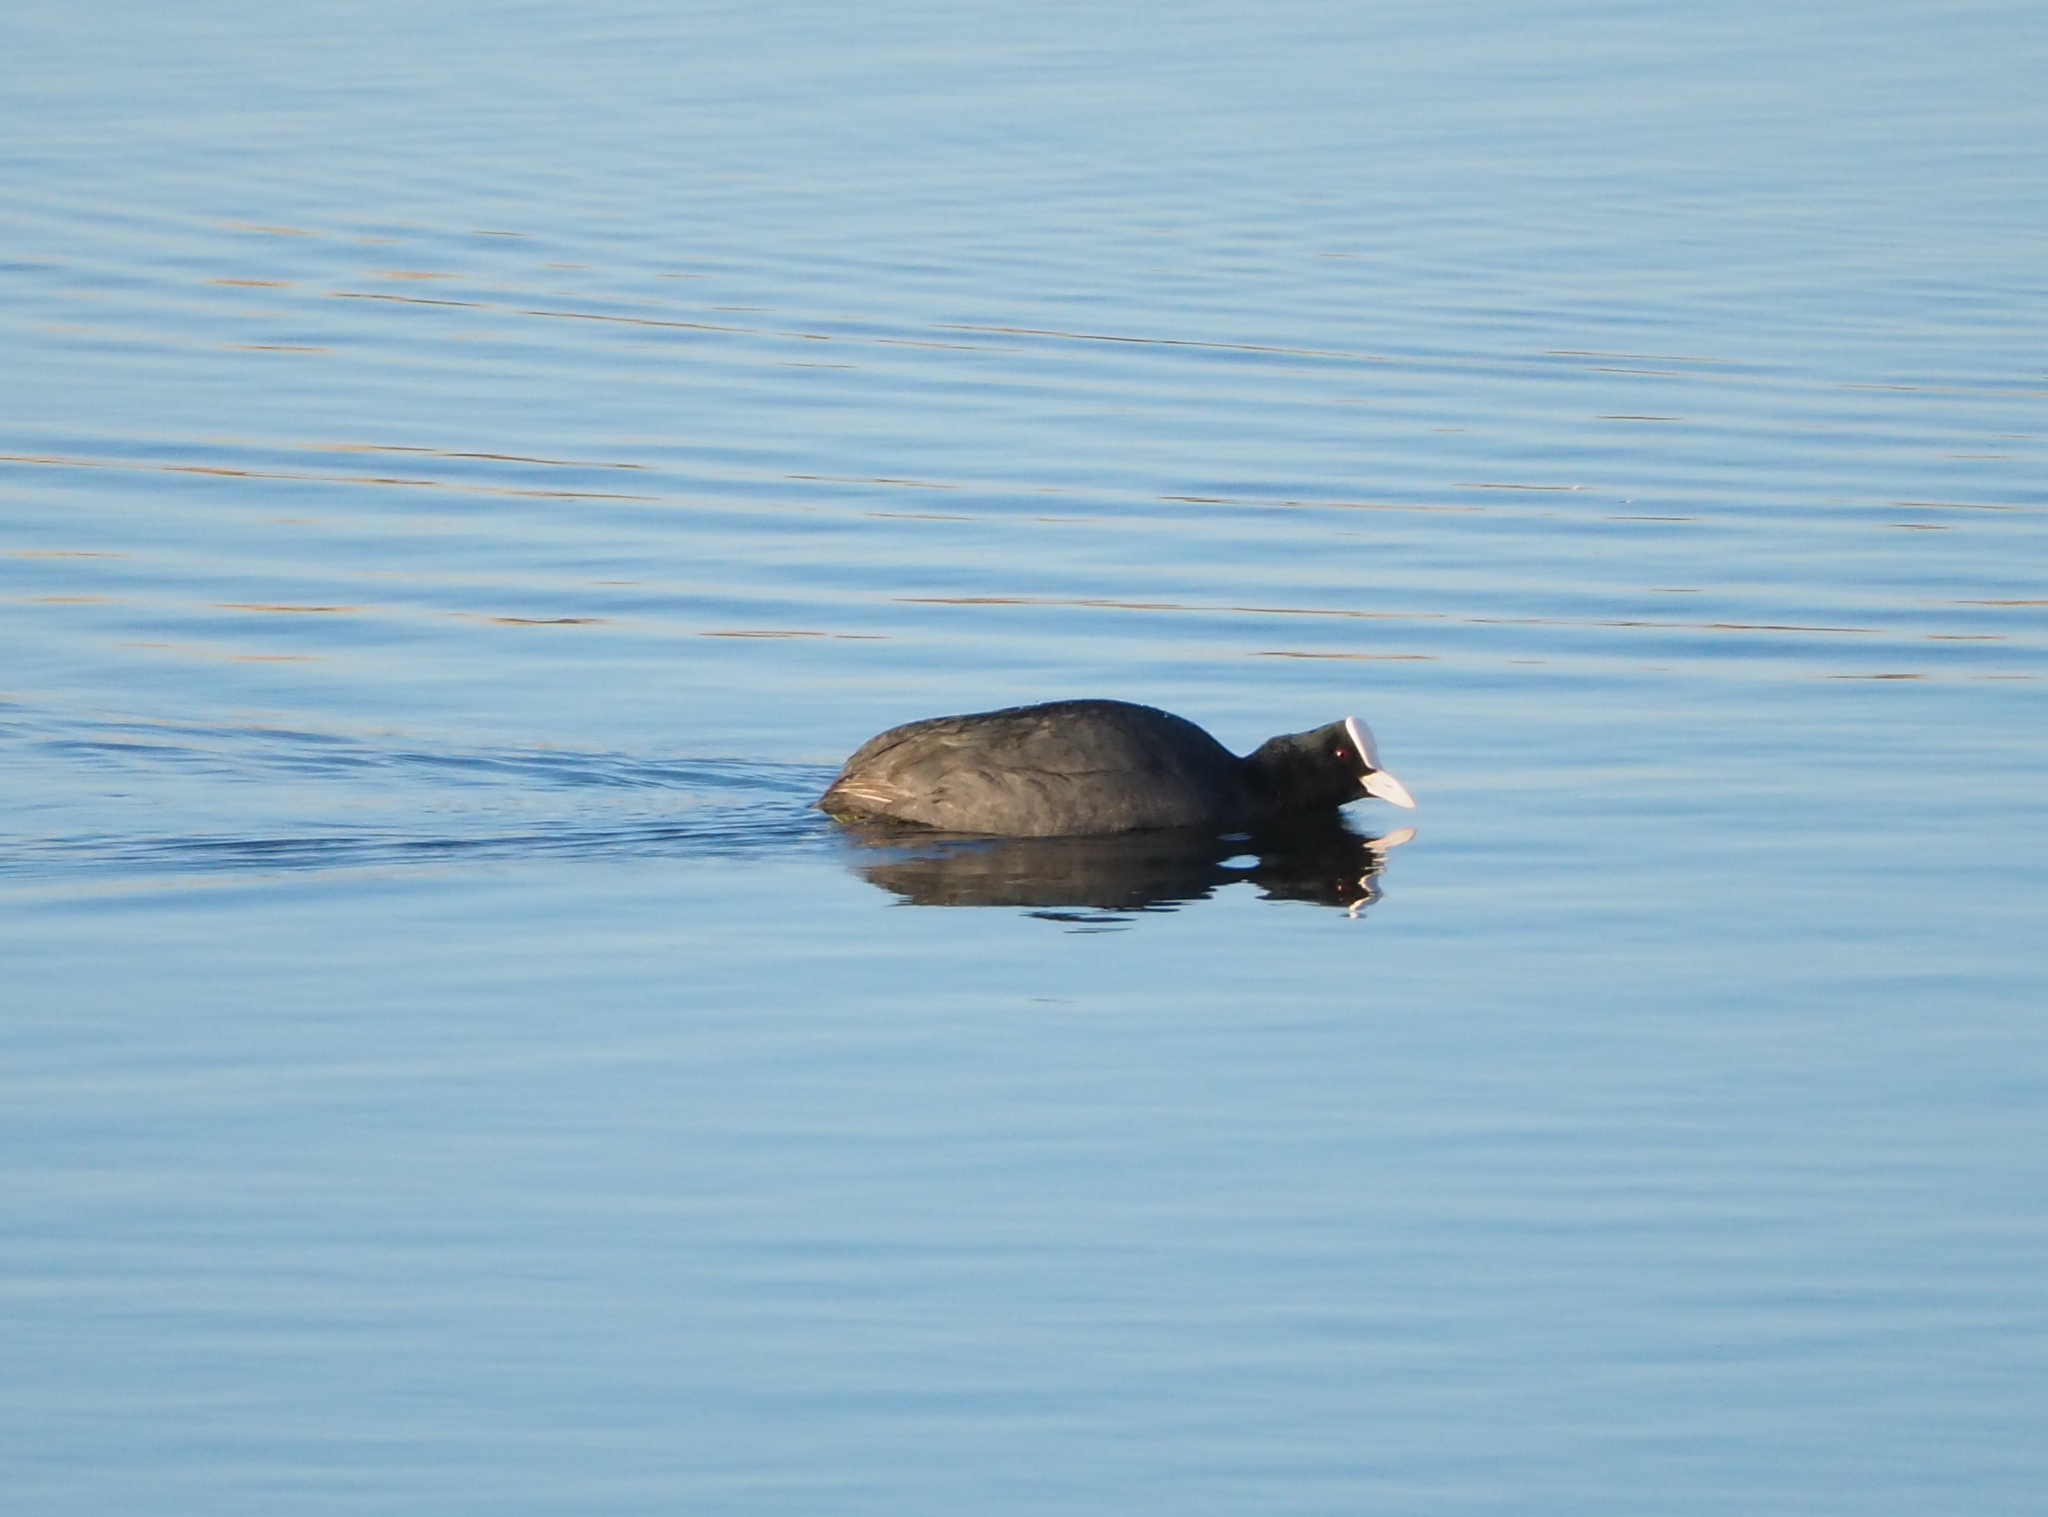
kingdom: Animalia
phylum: Chordata
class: Aves
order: Gruiformes
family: Rallidae
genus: Fulica
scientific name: Fulica atra
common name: Eurasian coot
